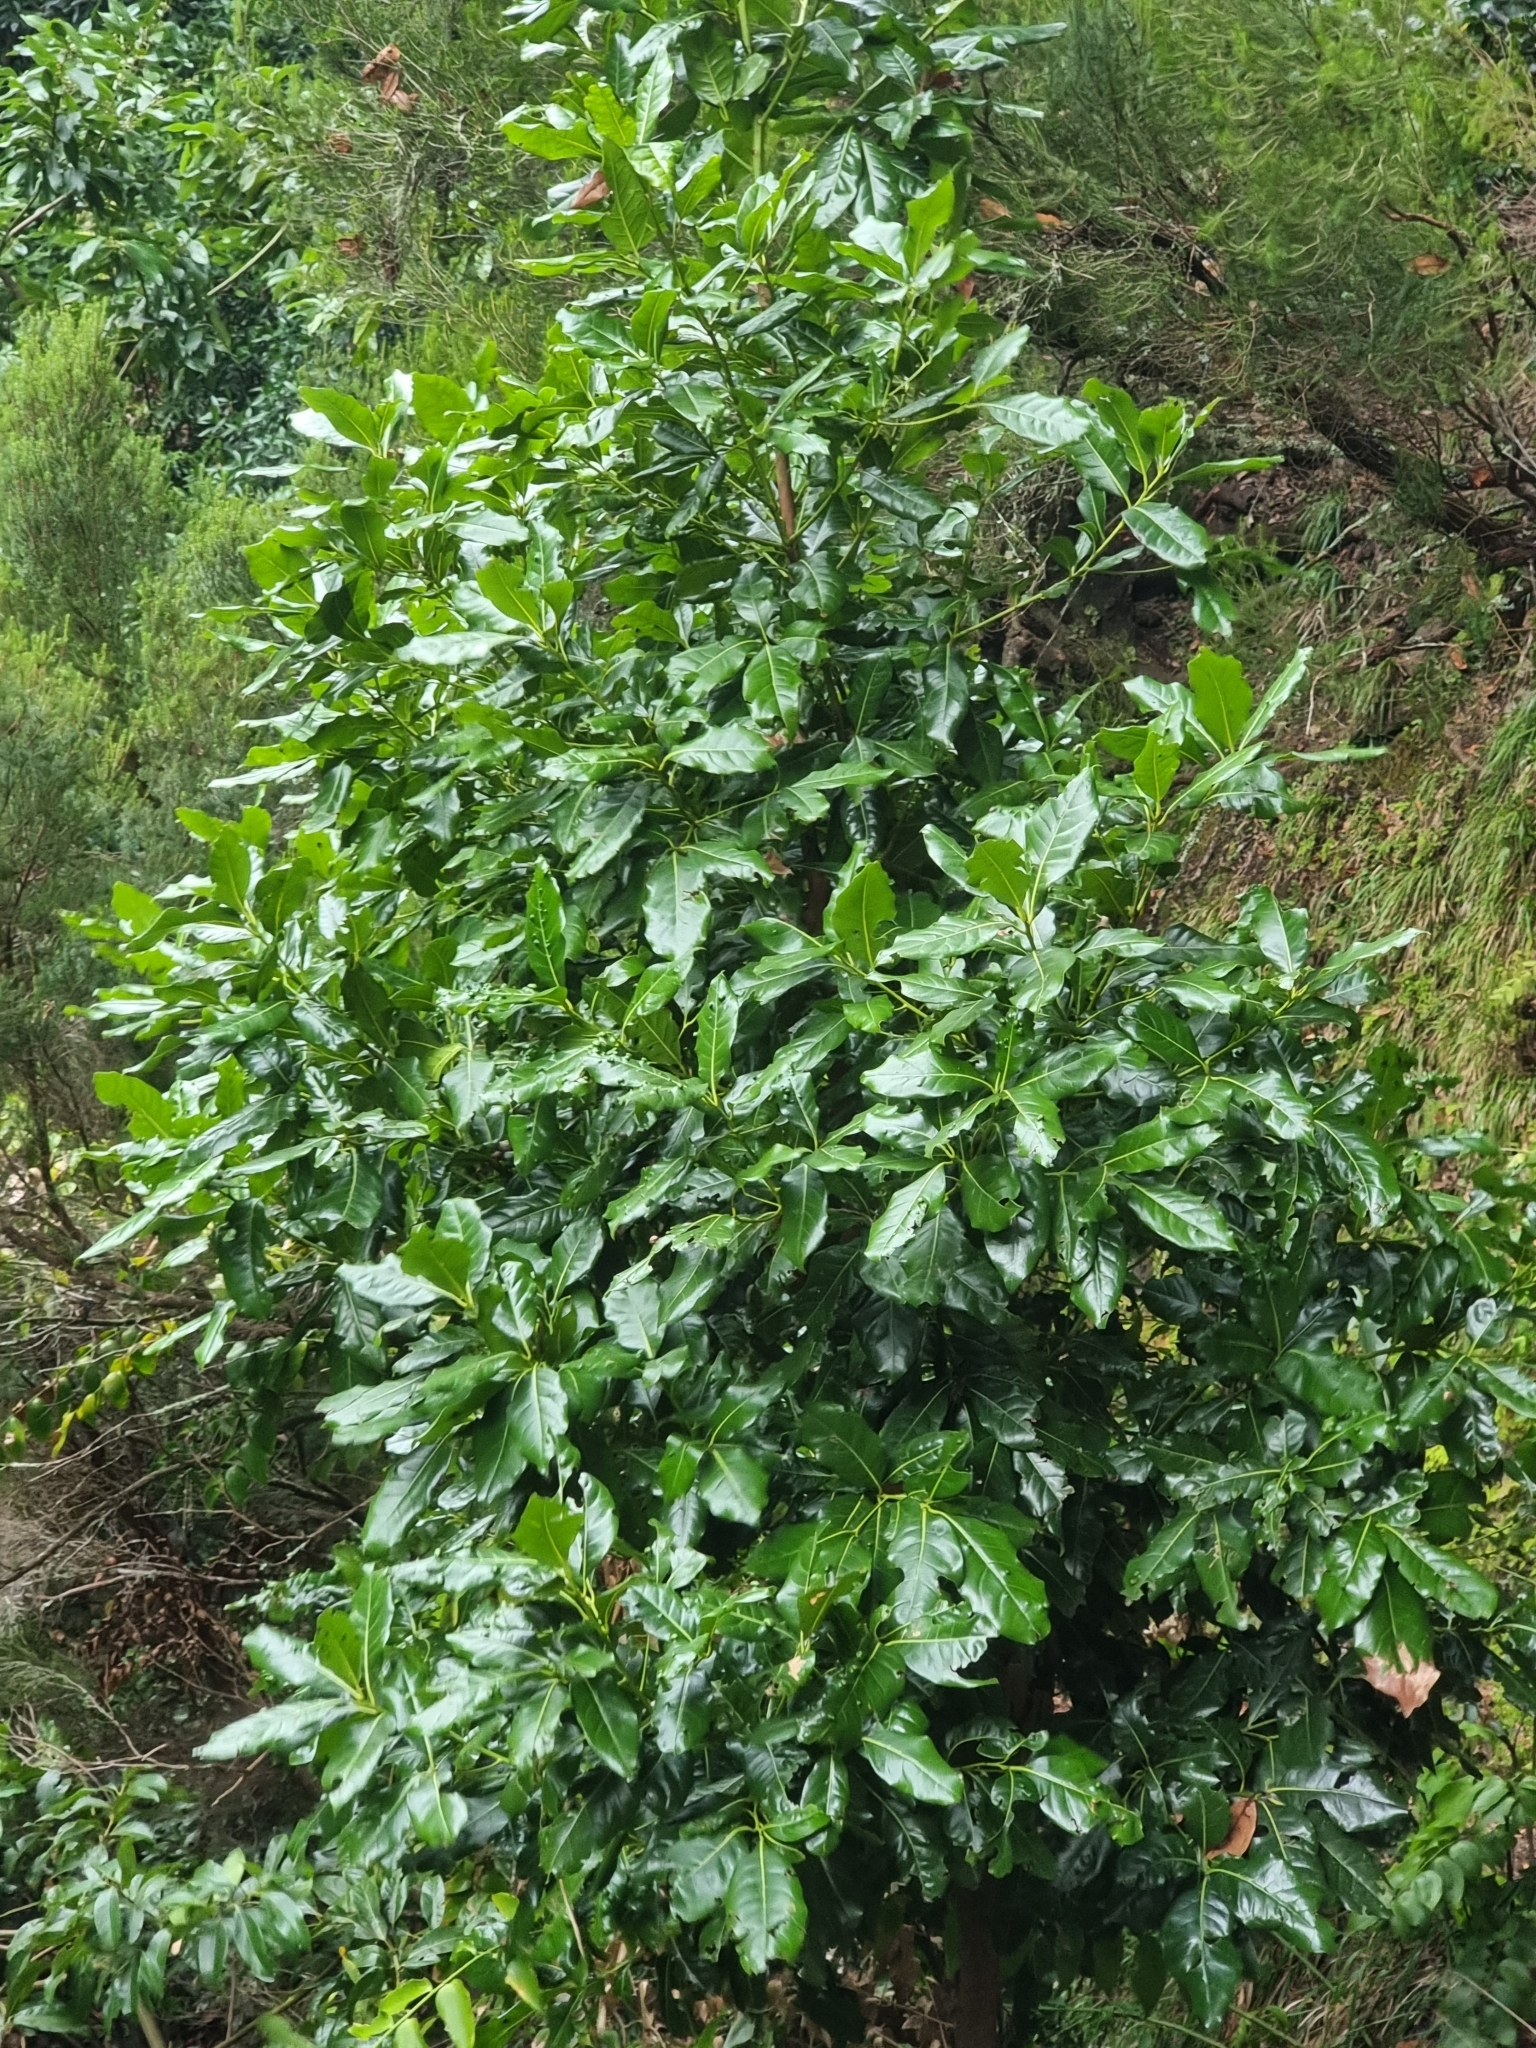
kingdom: Plantae
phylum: Tracheophyta
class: Magnoliopsida
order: Laurales
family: Lauraceae
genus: Apollonias
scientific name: Apollonias barbujana
